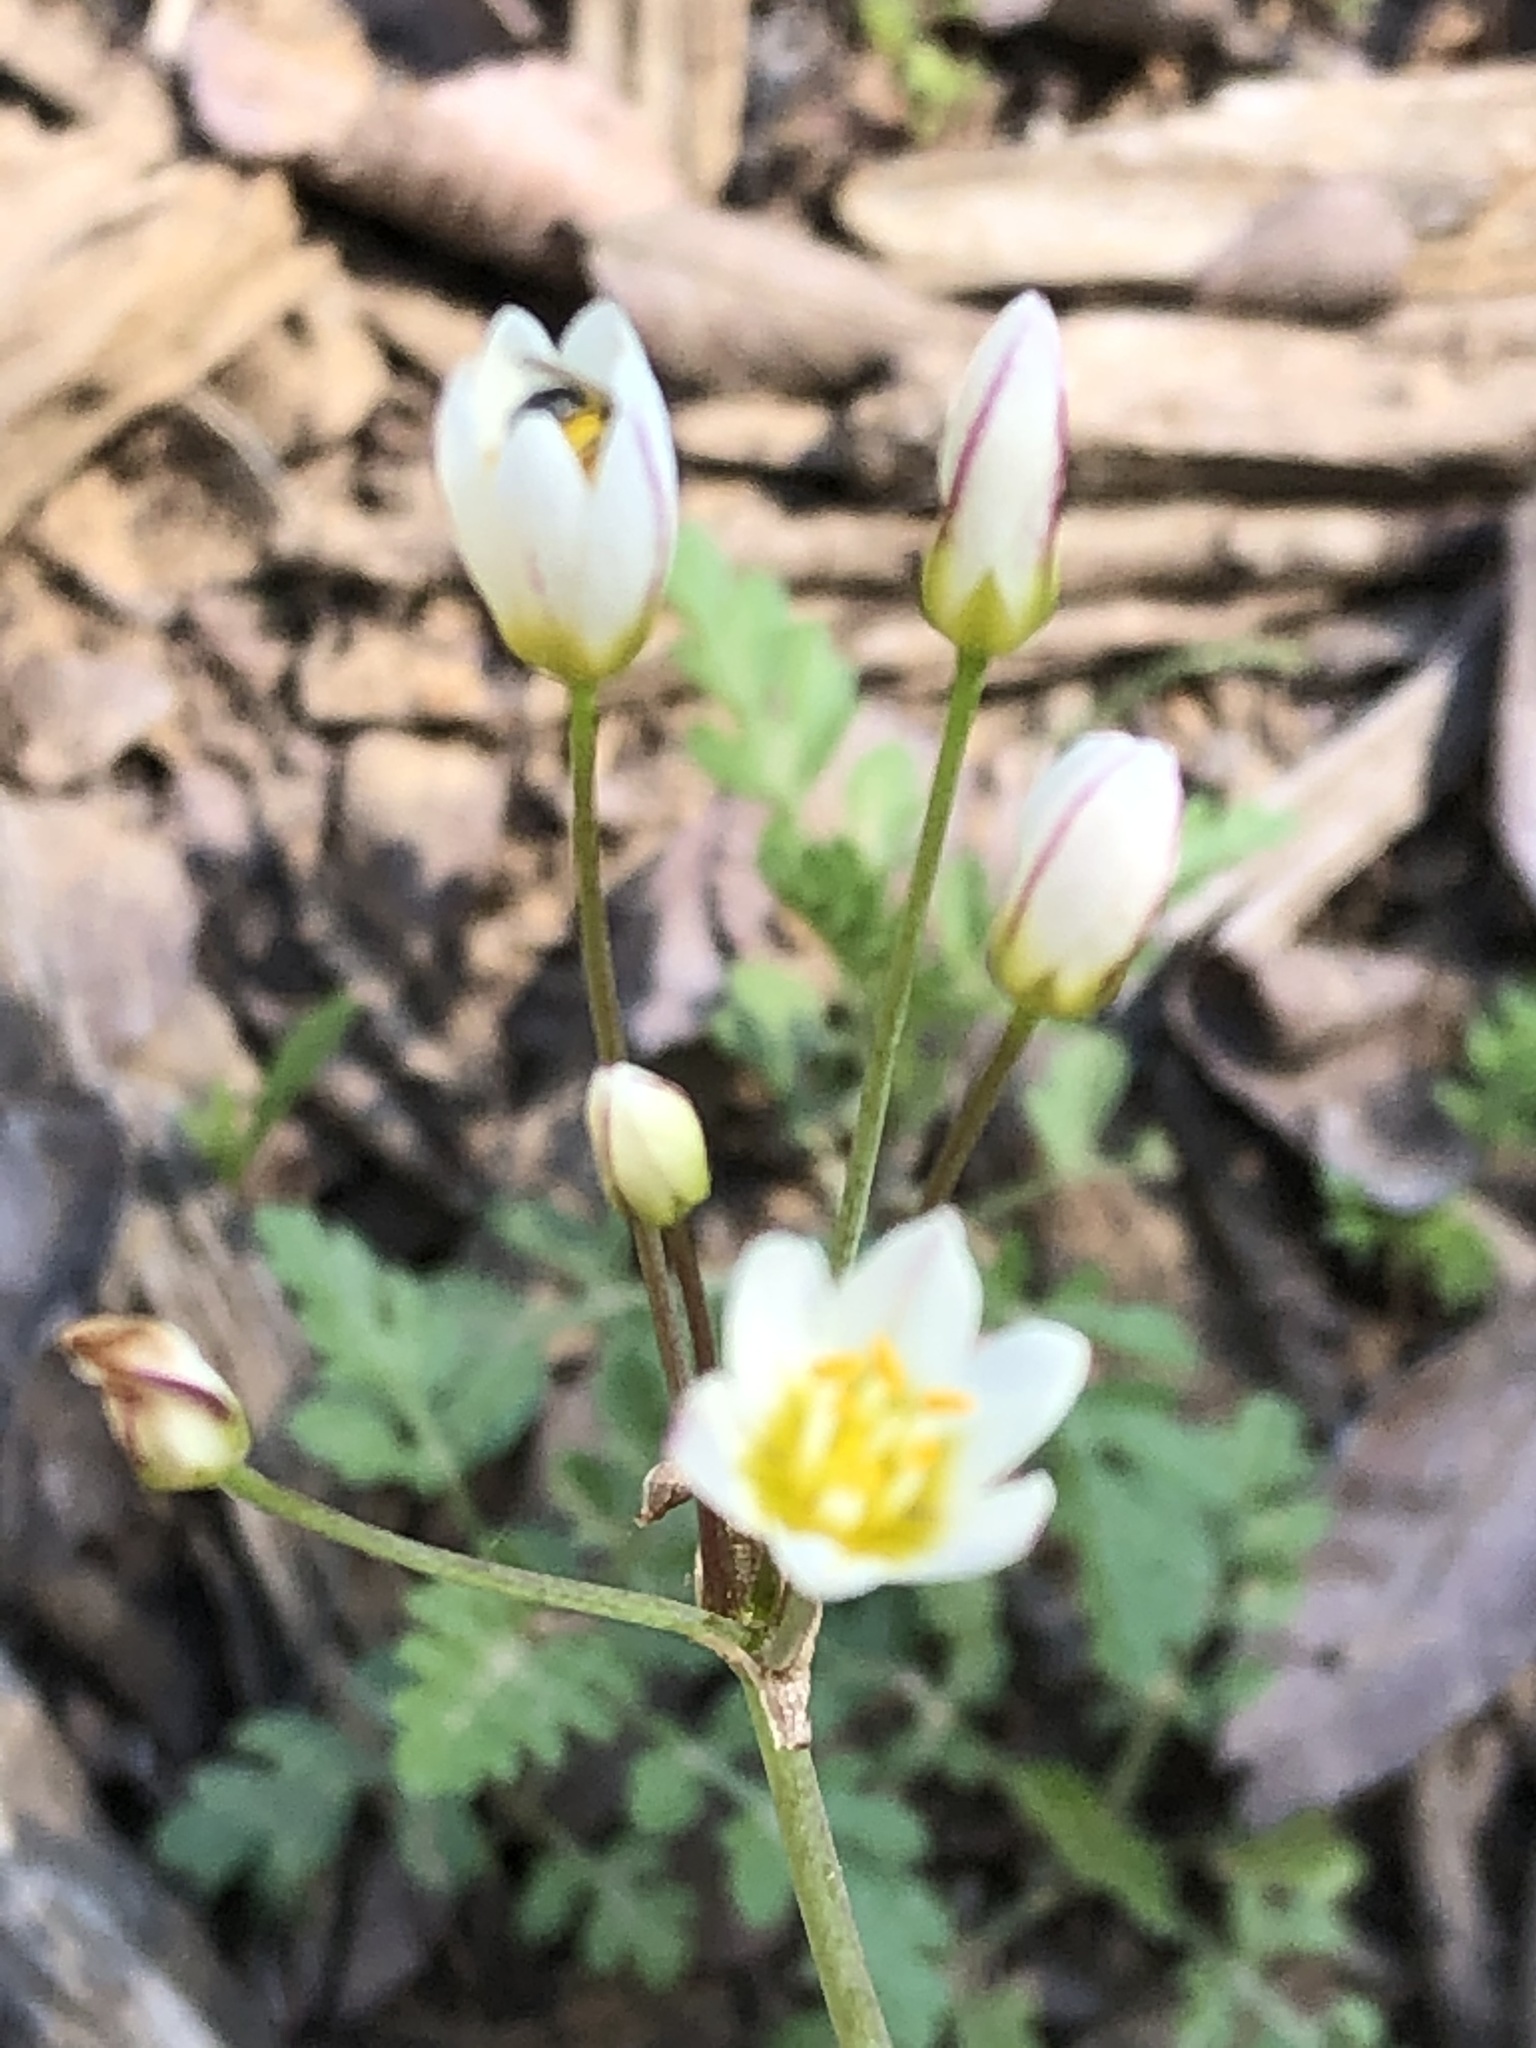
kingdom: Plantae
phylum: Tracheophyta
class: Liliopsida
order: Asparagales
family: Amaryllidaceae
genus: Nothoscordum
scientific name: Nothoscordum bivalve
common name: Crow-poison
